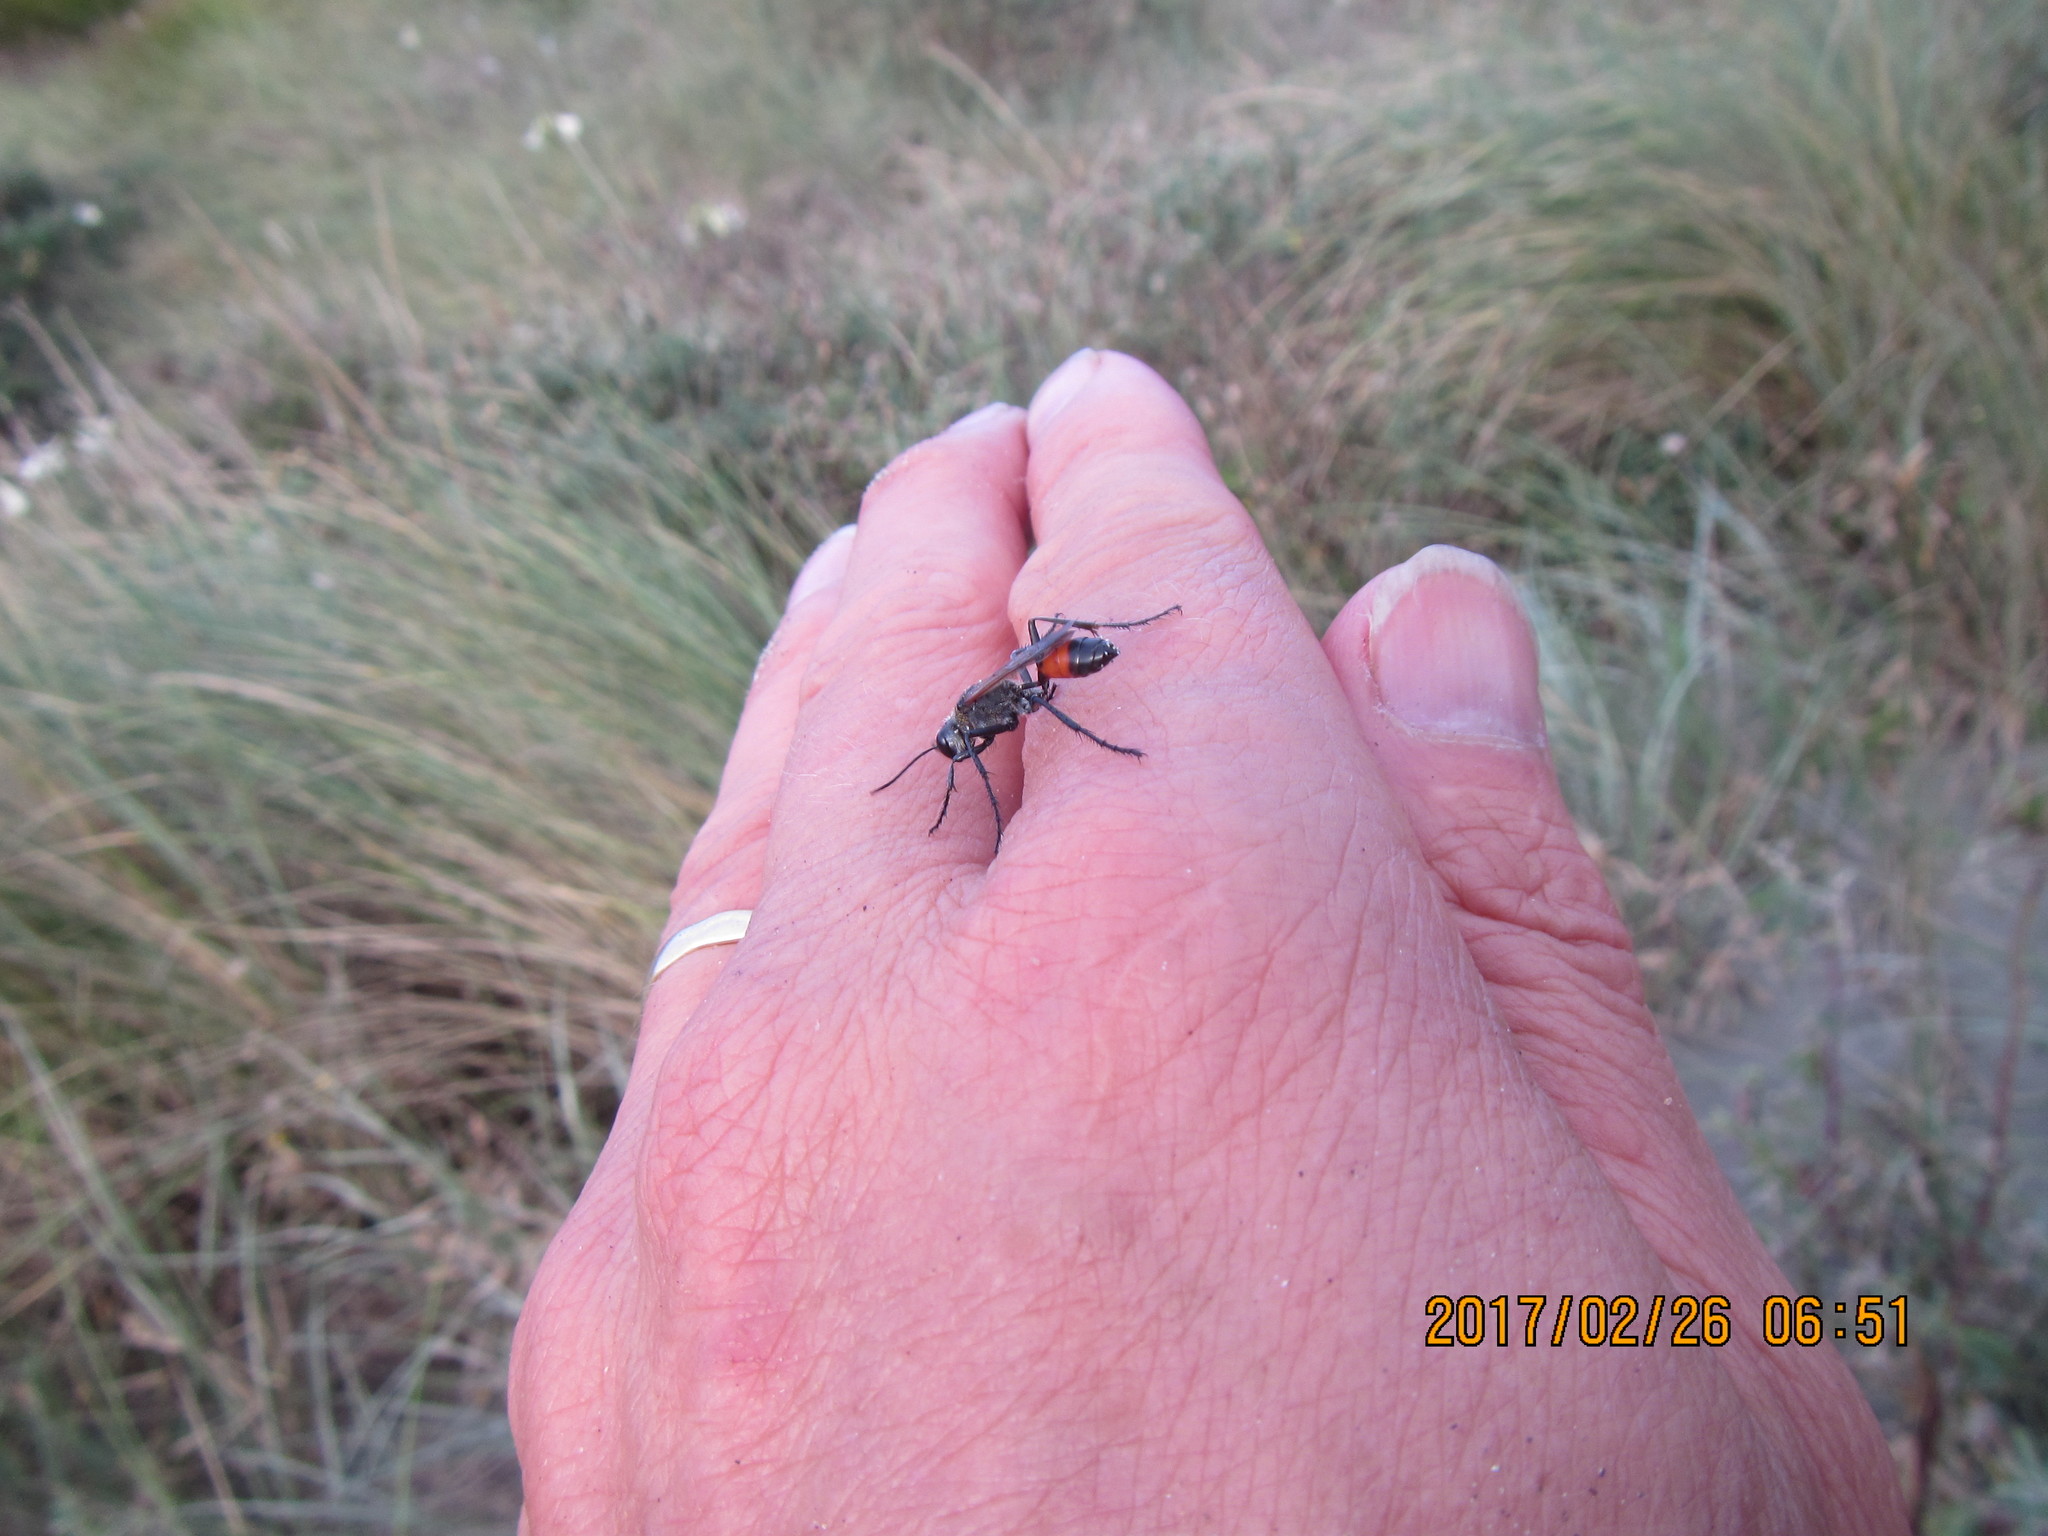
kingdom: Animalia
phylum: Arthropoda
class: Insecta
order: Hymenoptera
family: Sphecidae
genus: Podalonia
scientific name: Podalonia tydei
